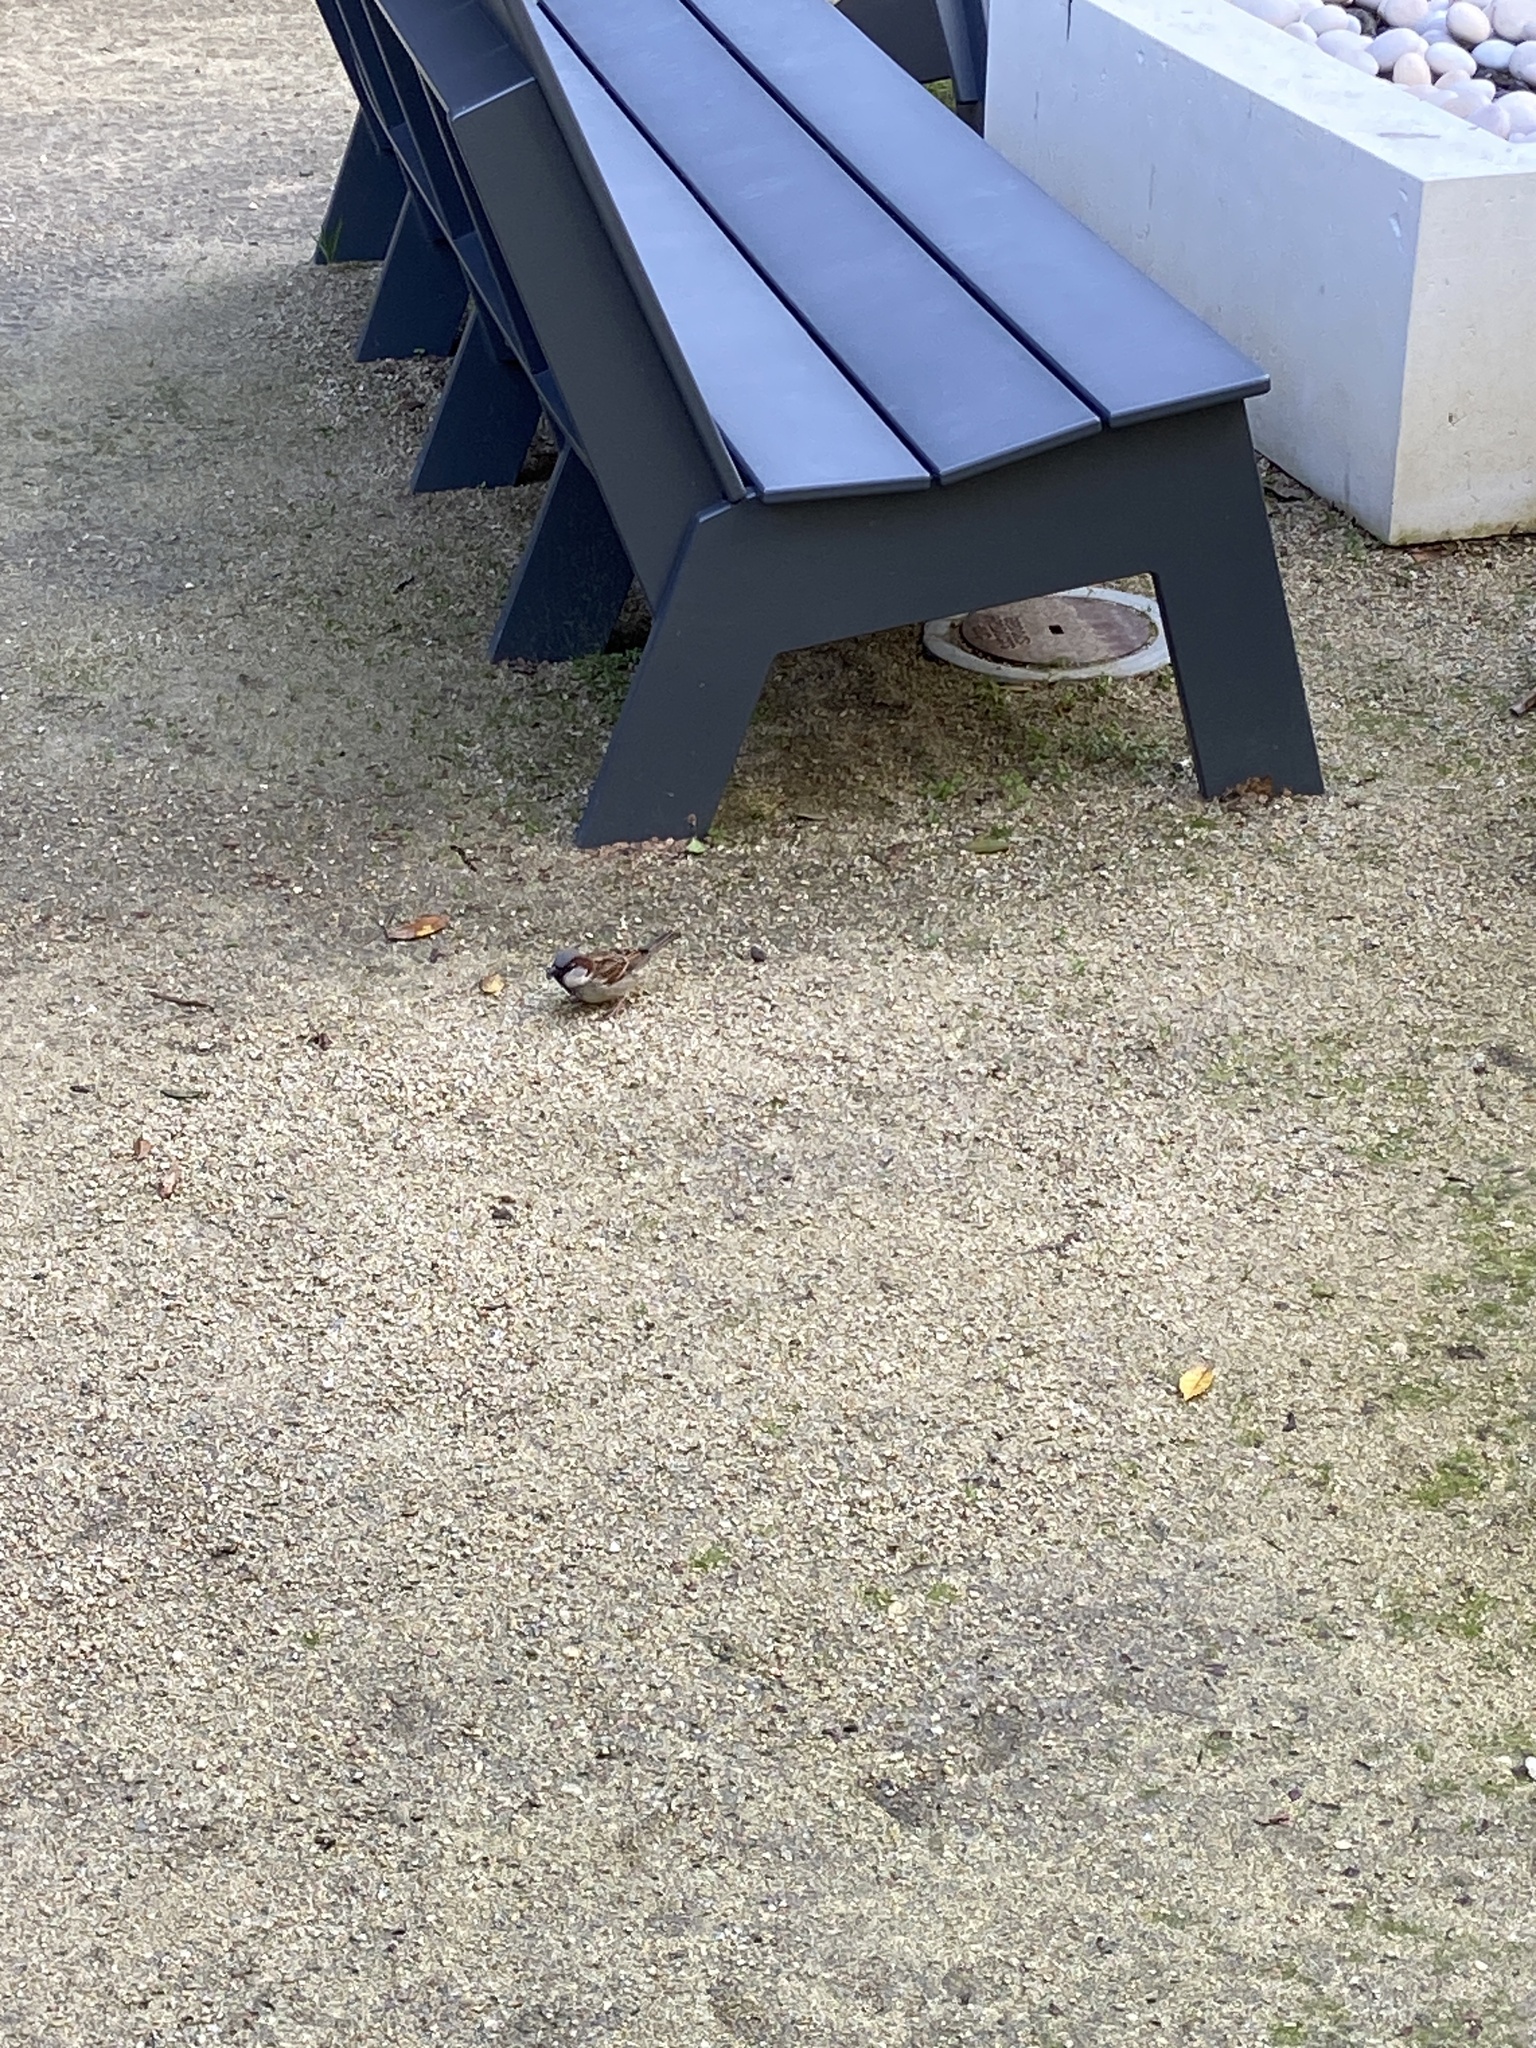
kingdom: Animalia
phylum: Chordata
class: Aves
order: Passeriformes
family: Passeridae
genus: Passer
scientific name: Passer domesticus
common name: House sparrow
